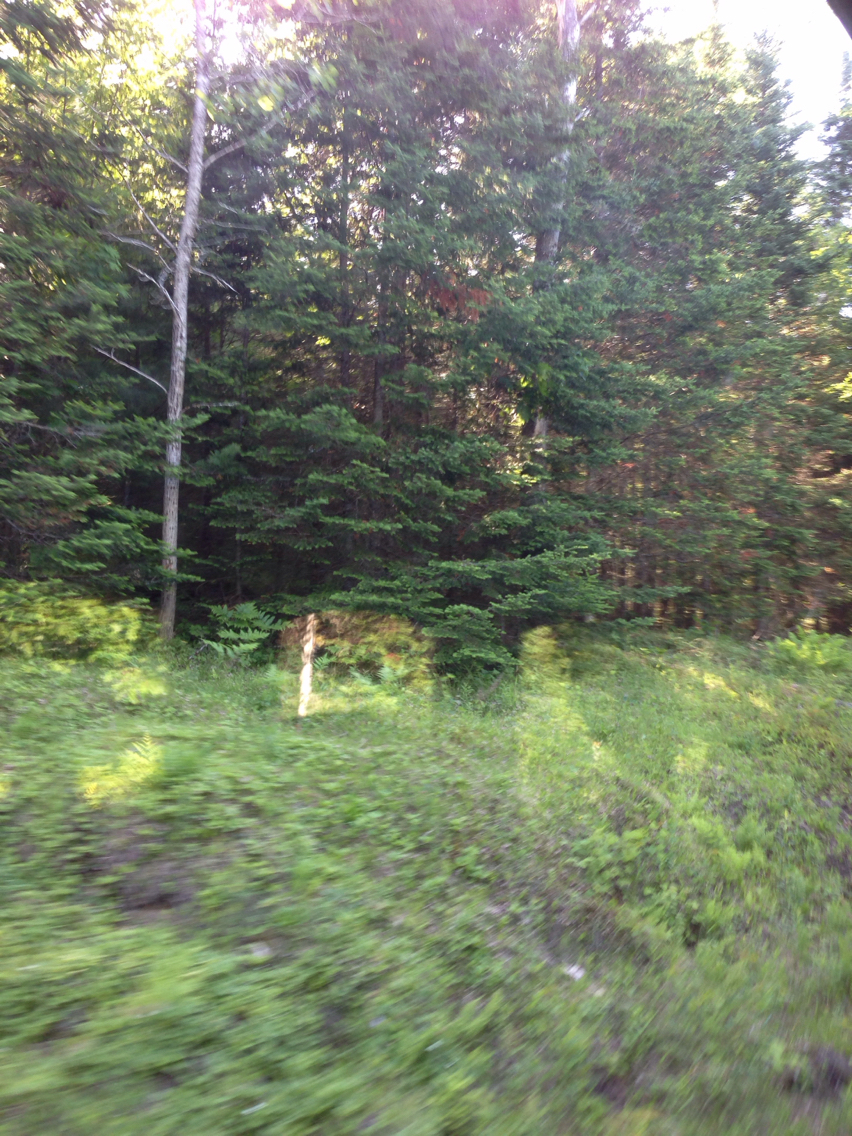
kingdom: Plantae
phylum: Tracheophyta
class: Pinopsida
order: Pinales
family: Pinaceae
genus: Abies
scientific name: Abies balsamea
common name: Balsam fir
